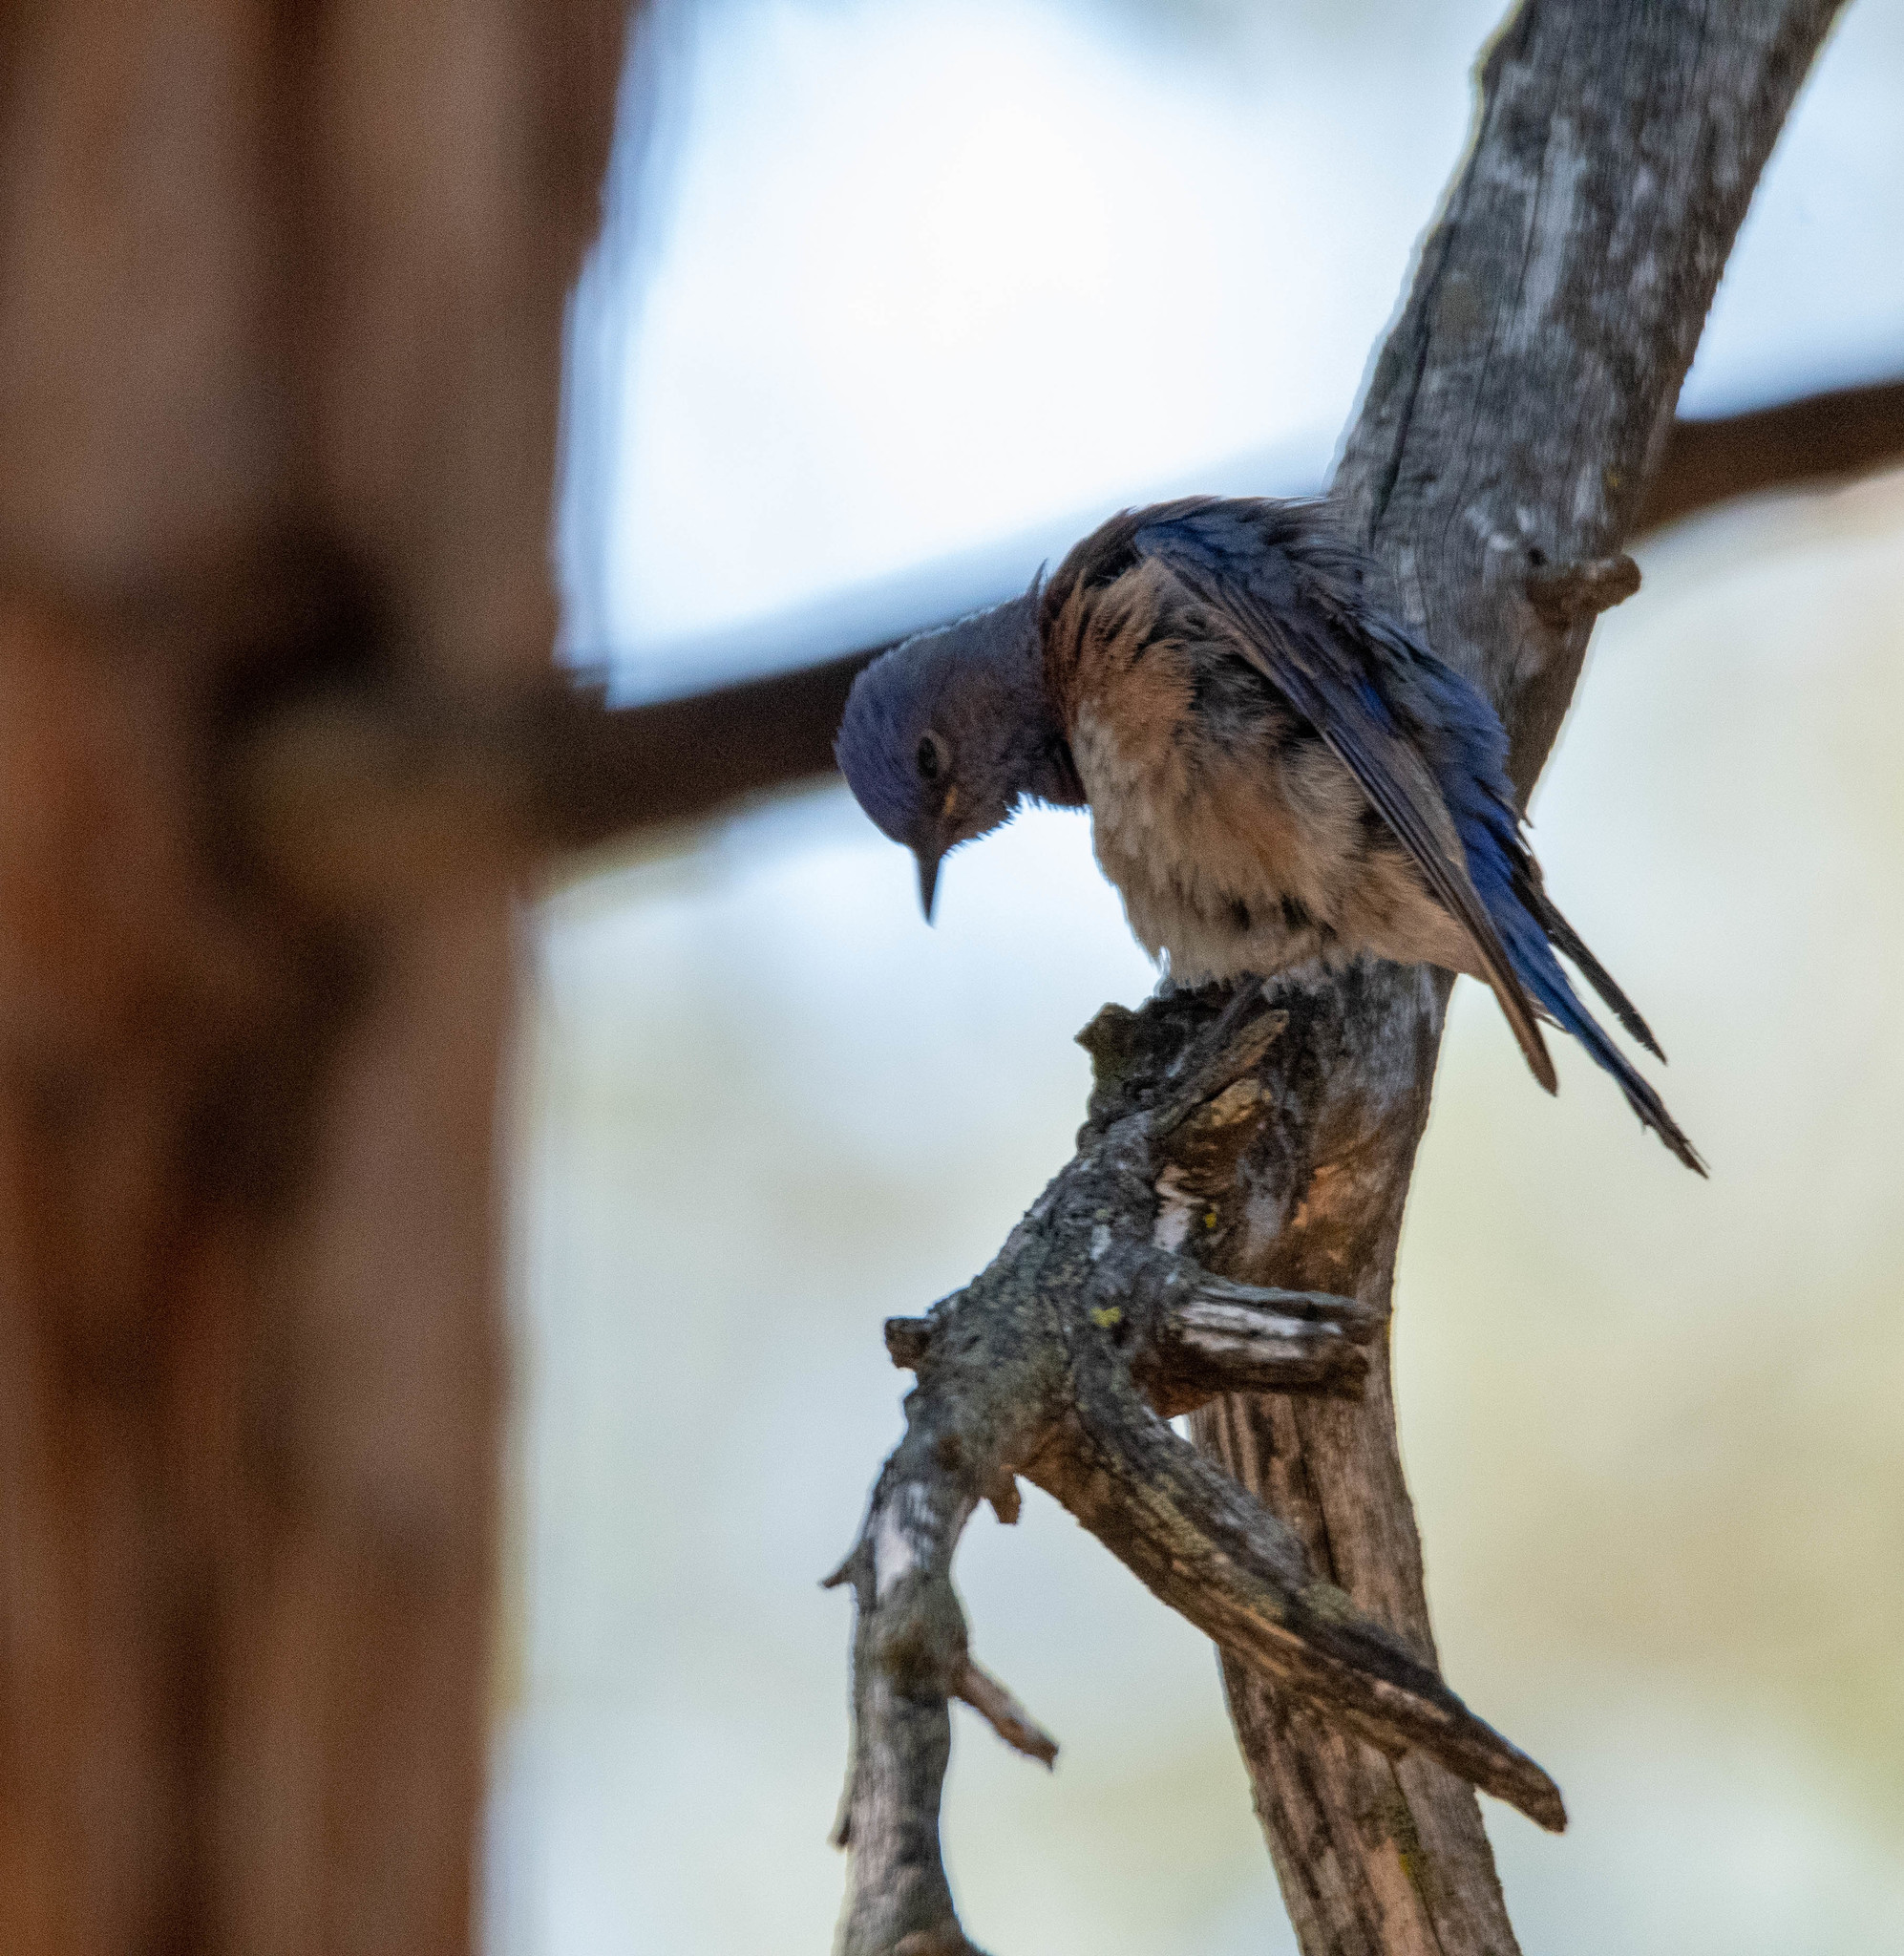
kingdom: Animalia
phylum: Chordata
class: Aves
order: Passeriformes
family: Turdidae
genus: Sialia
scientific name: Sialia mexicana
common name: Western bluebird
